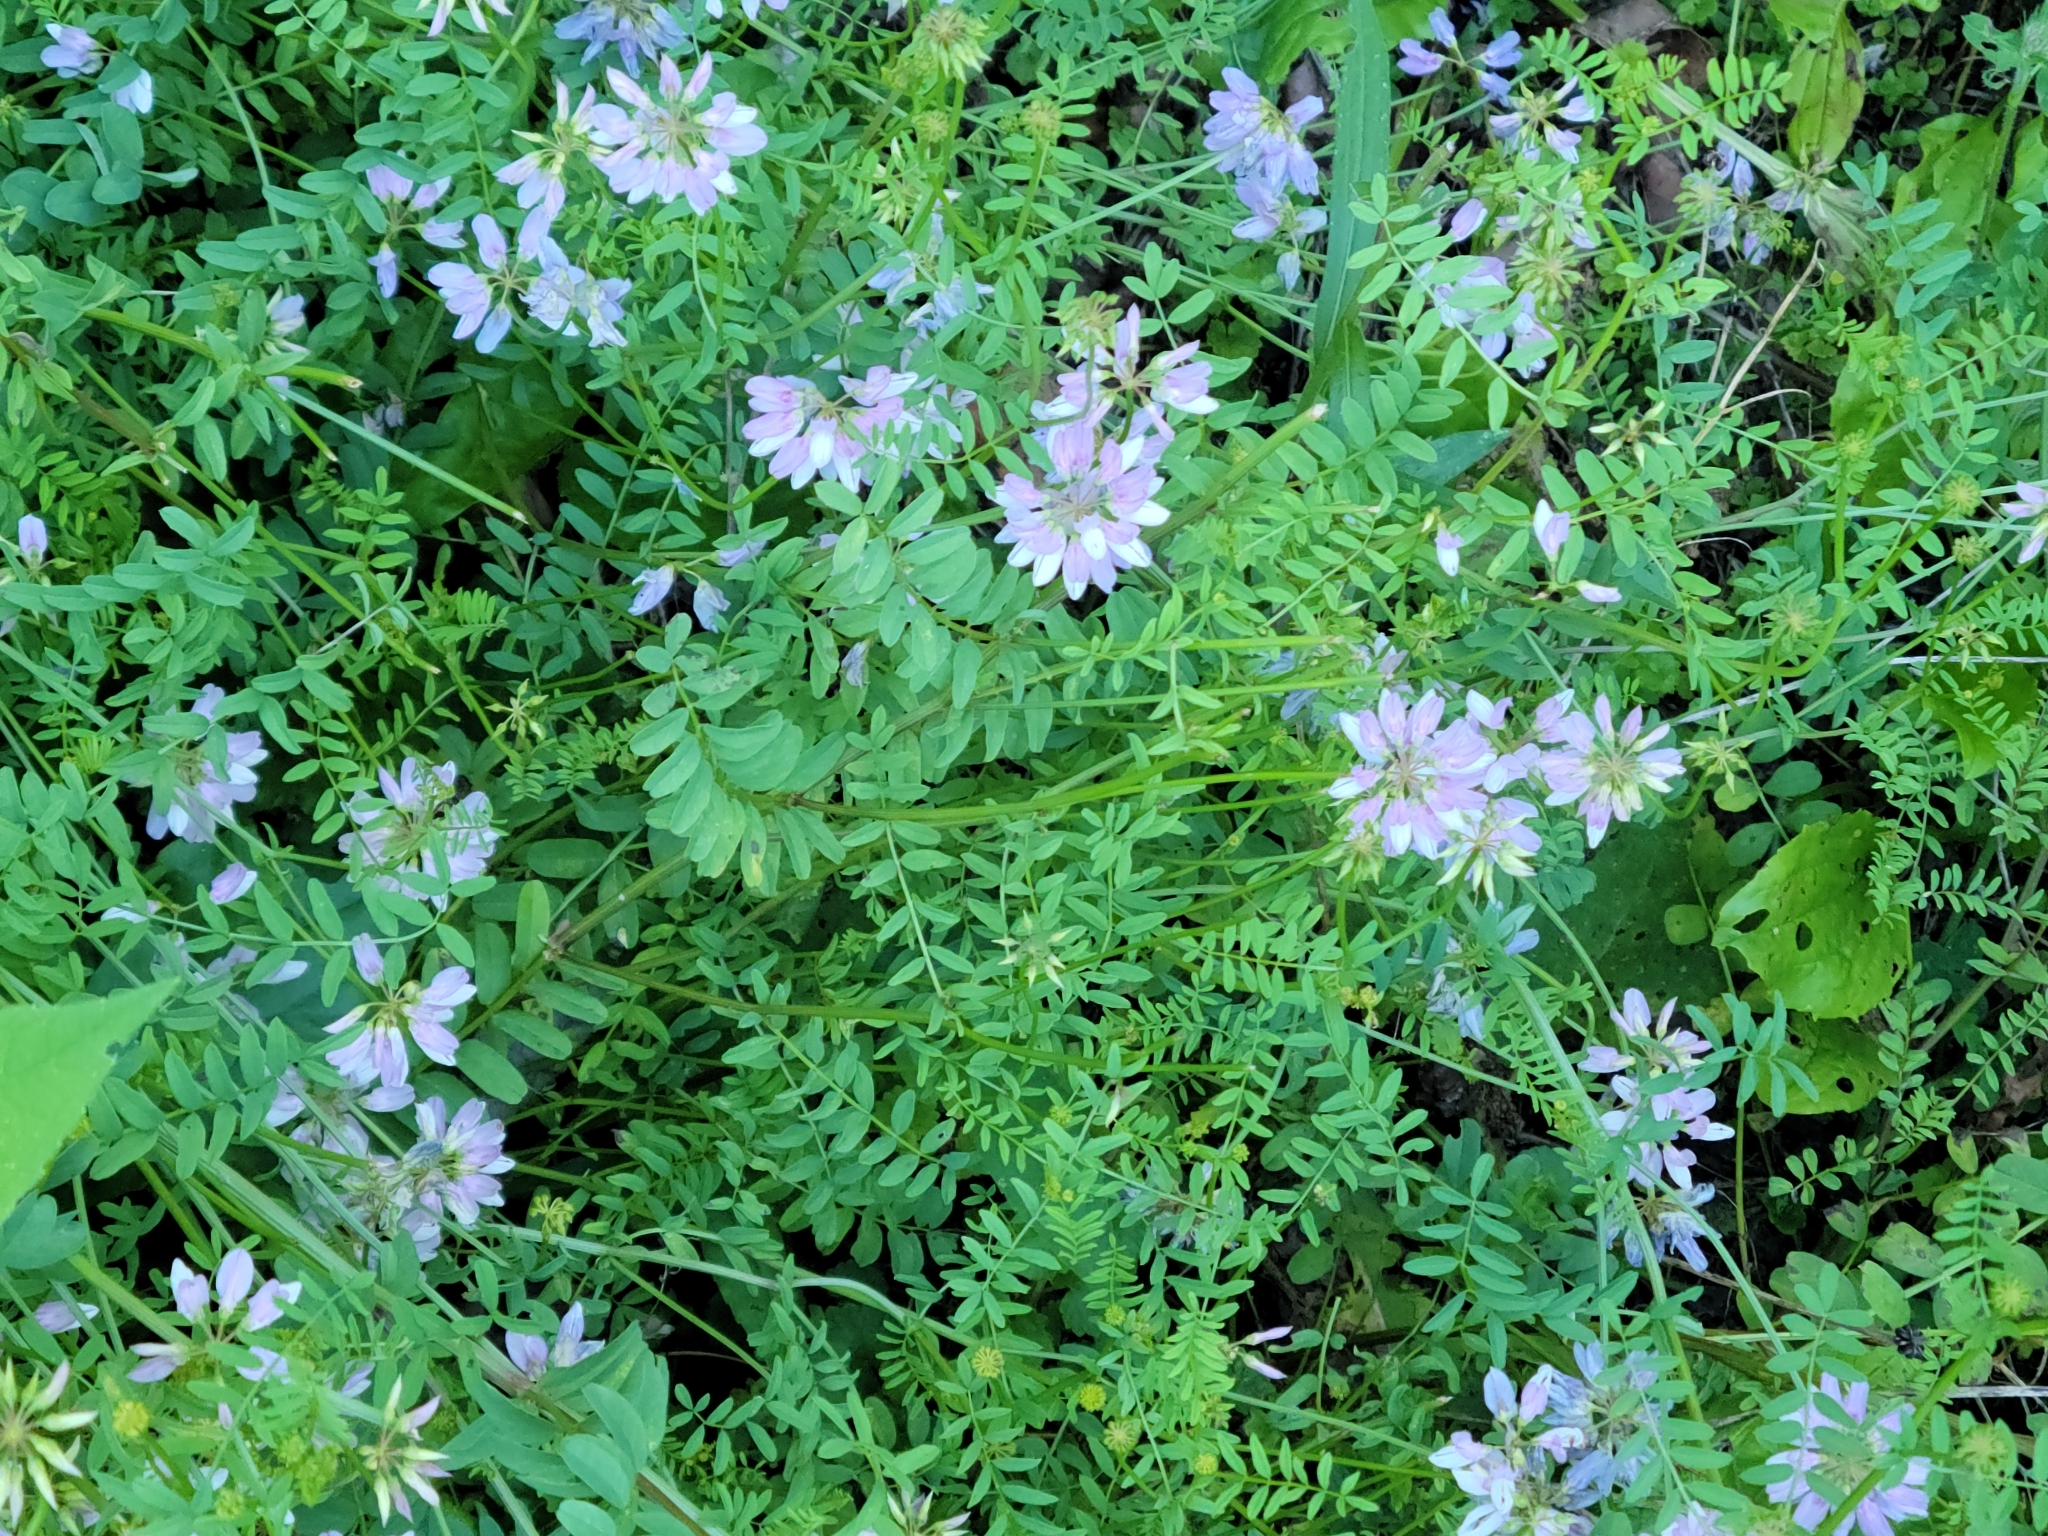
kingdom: Plantae
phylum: Tracheophyta
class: Magnoliopsida
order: Fabales
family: Fabaceae
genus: Coronilla
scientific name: Coronilla varia
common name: Crownvetch
